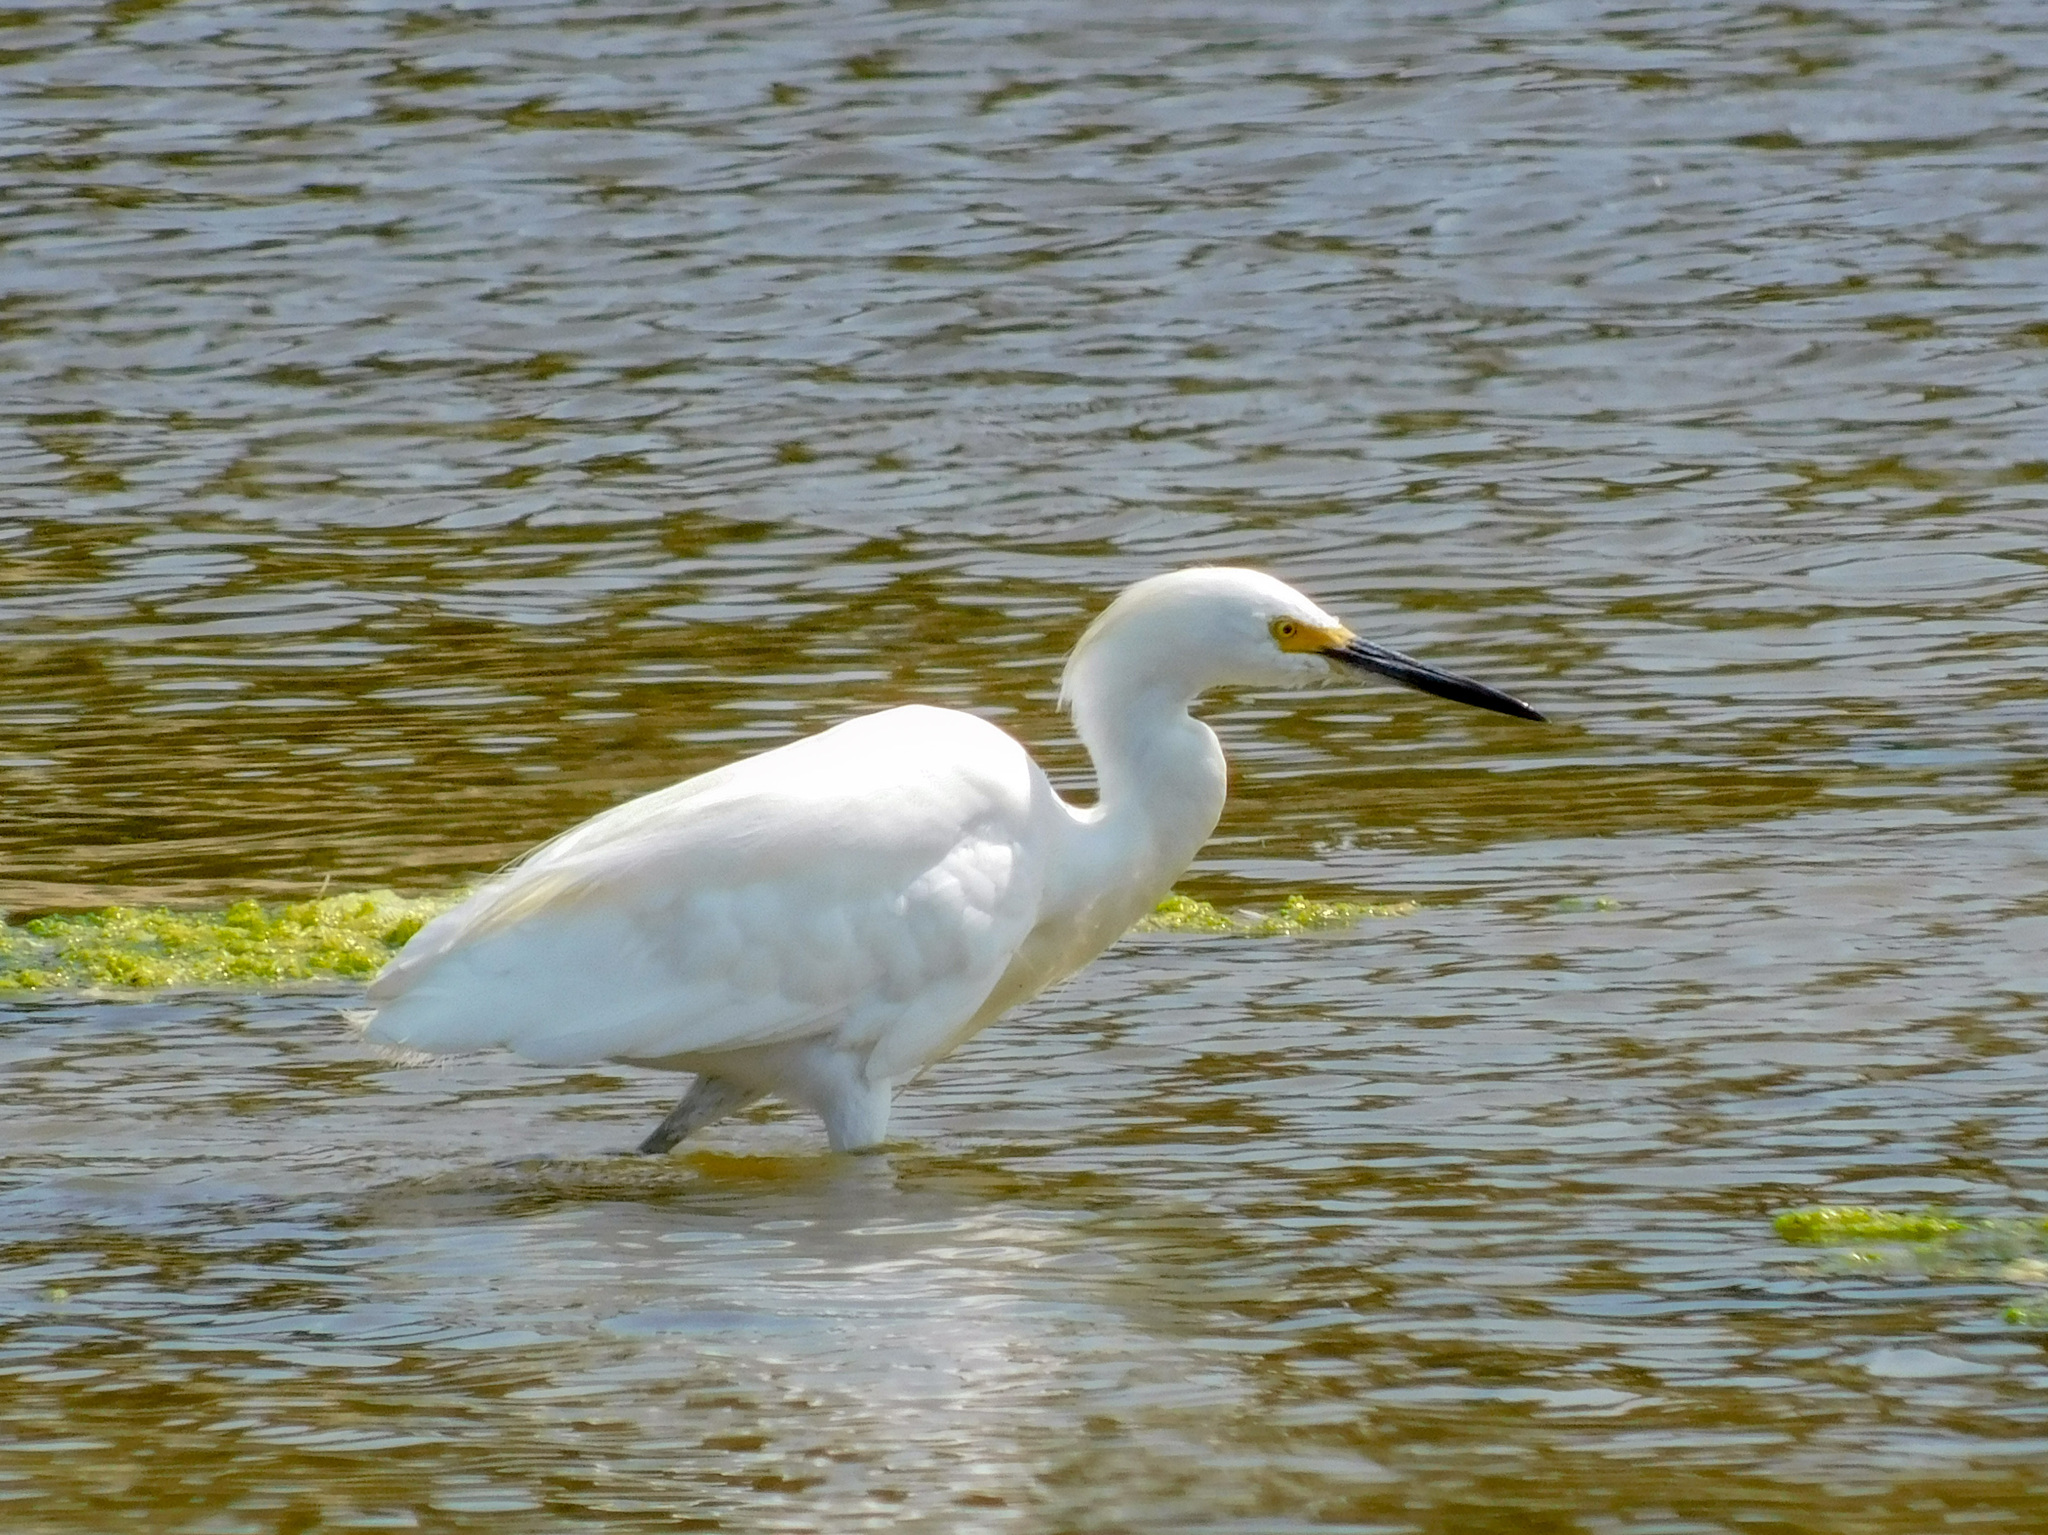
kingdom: Animalia
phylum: Chordata
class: Aves
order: Pelecaniformes
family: Ardeidae
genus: Egretta
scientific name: Egretta thula
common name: Snowy egret
